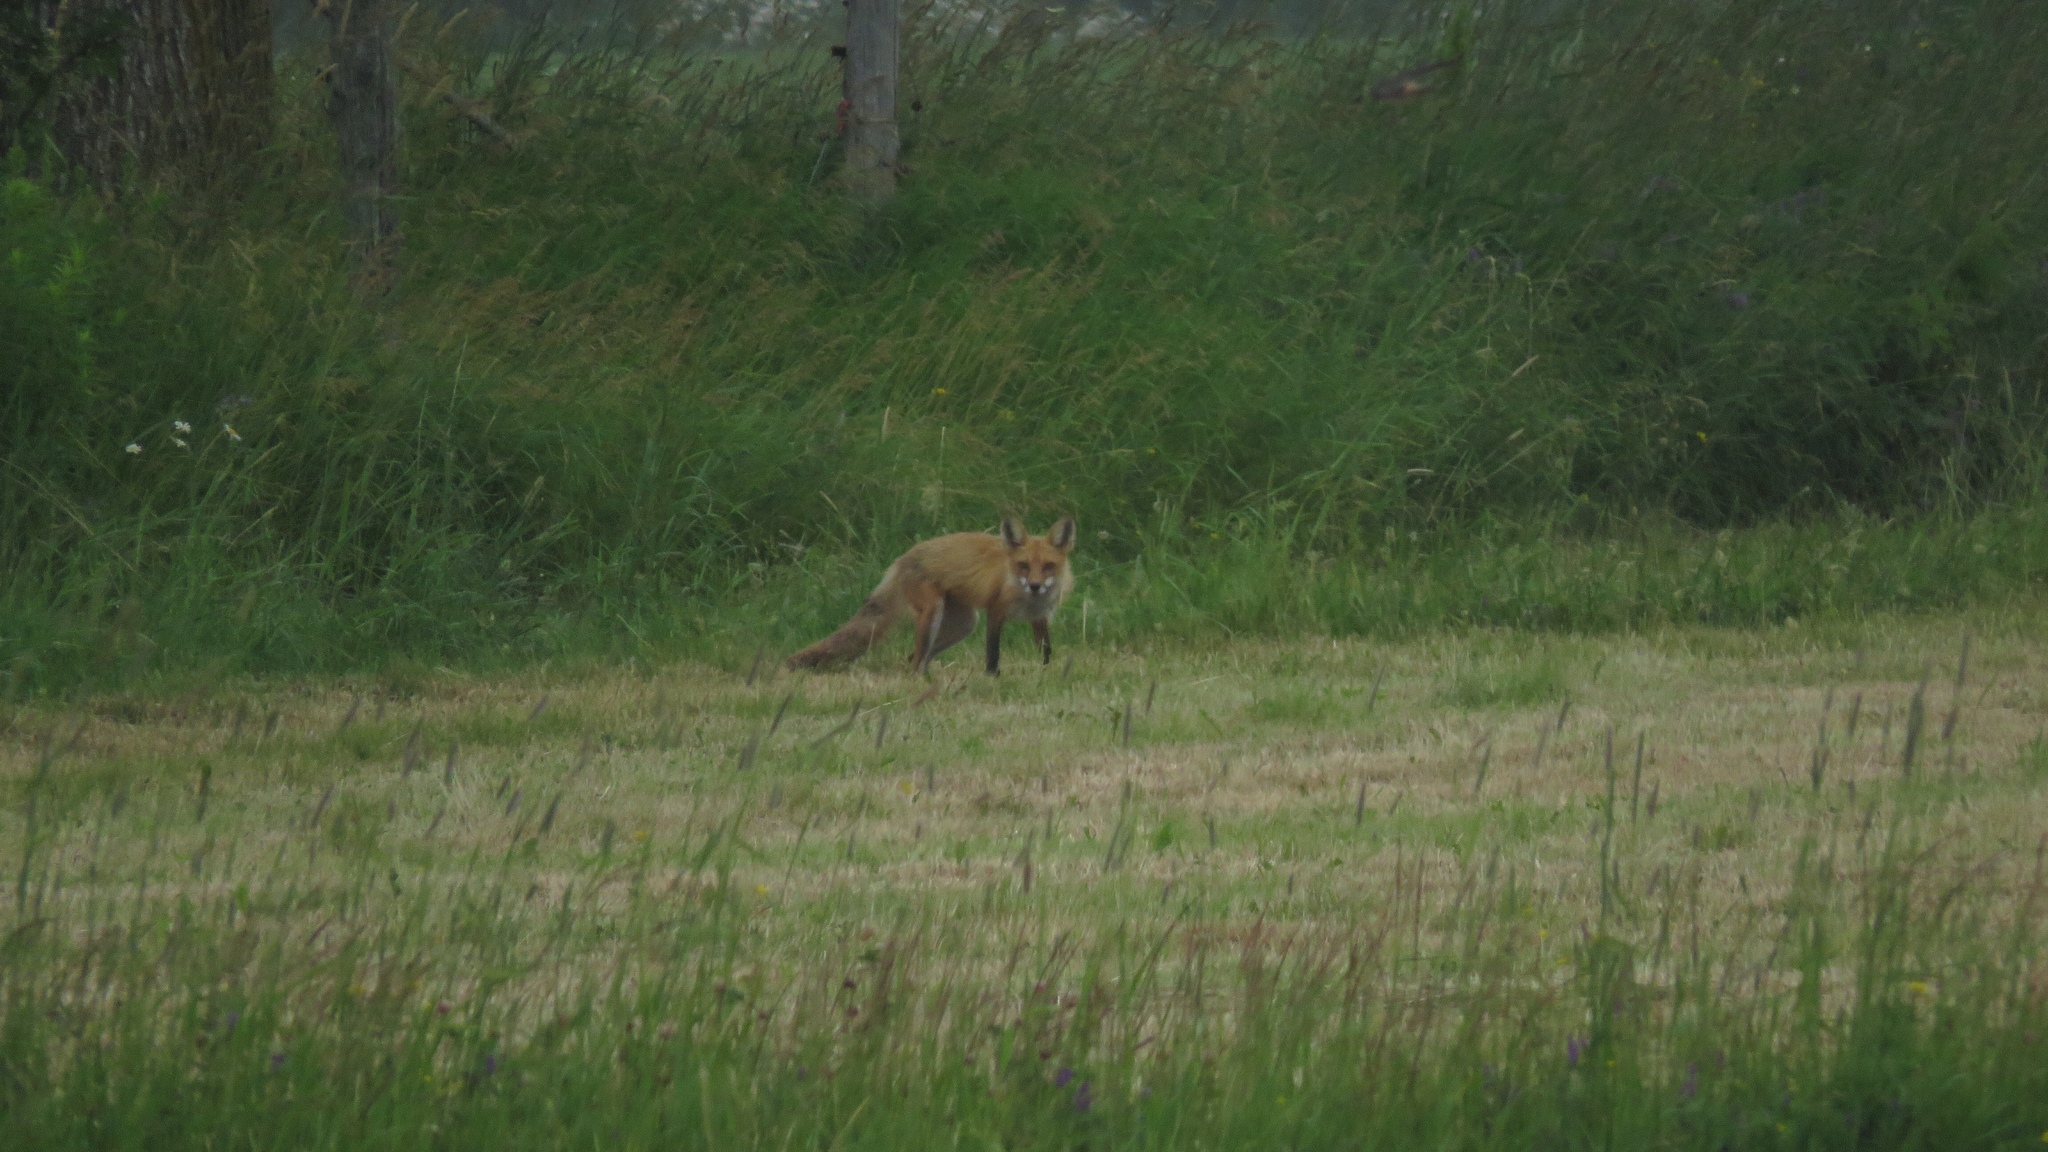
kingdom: Animalia
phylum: Chordata
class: Mammalia
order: Carnivora
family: Canidae
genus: Vulpes
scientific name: Vulpes vulpes
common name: Red fox
